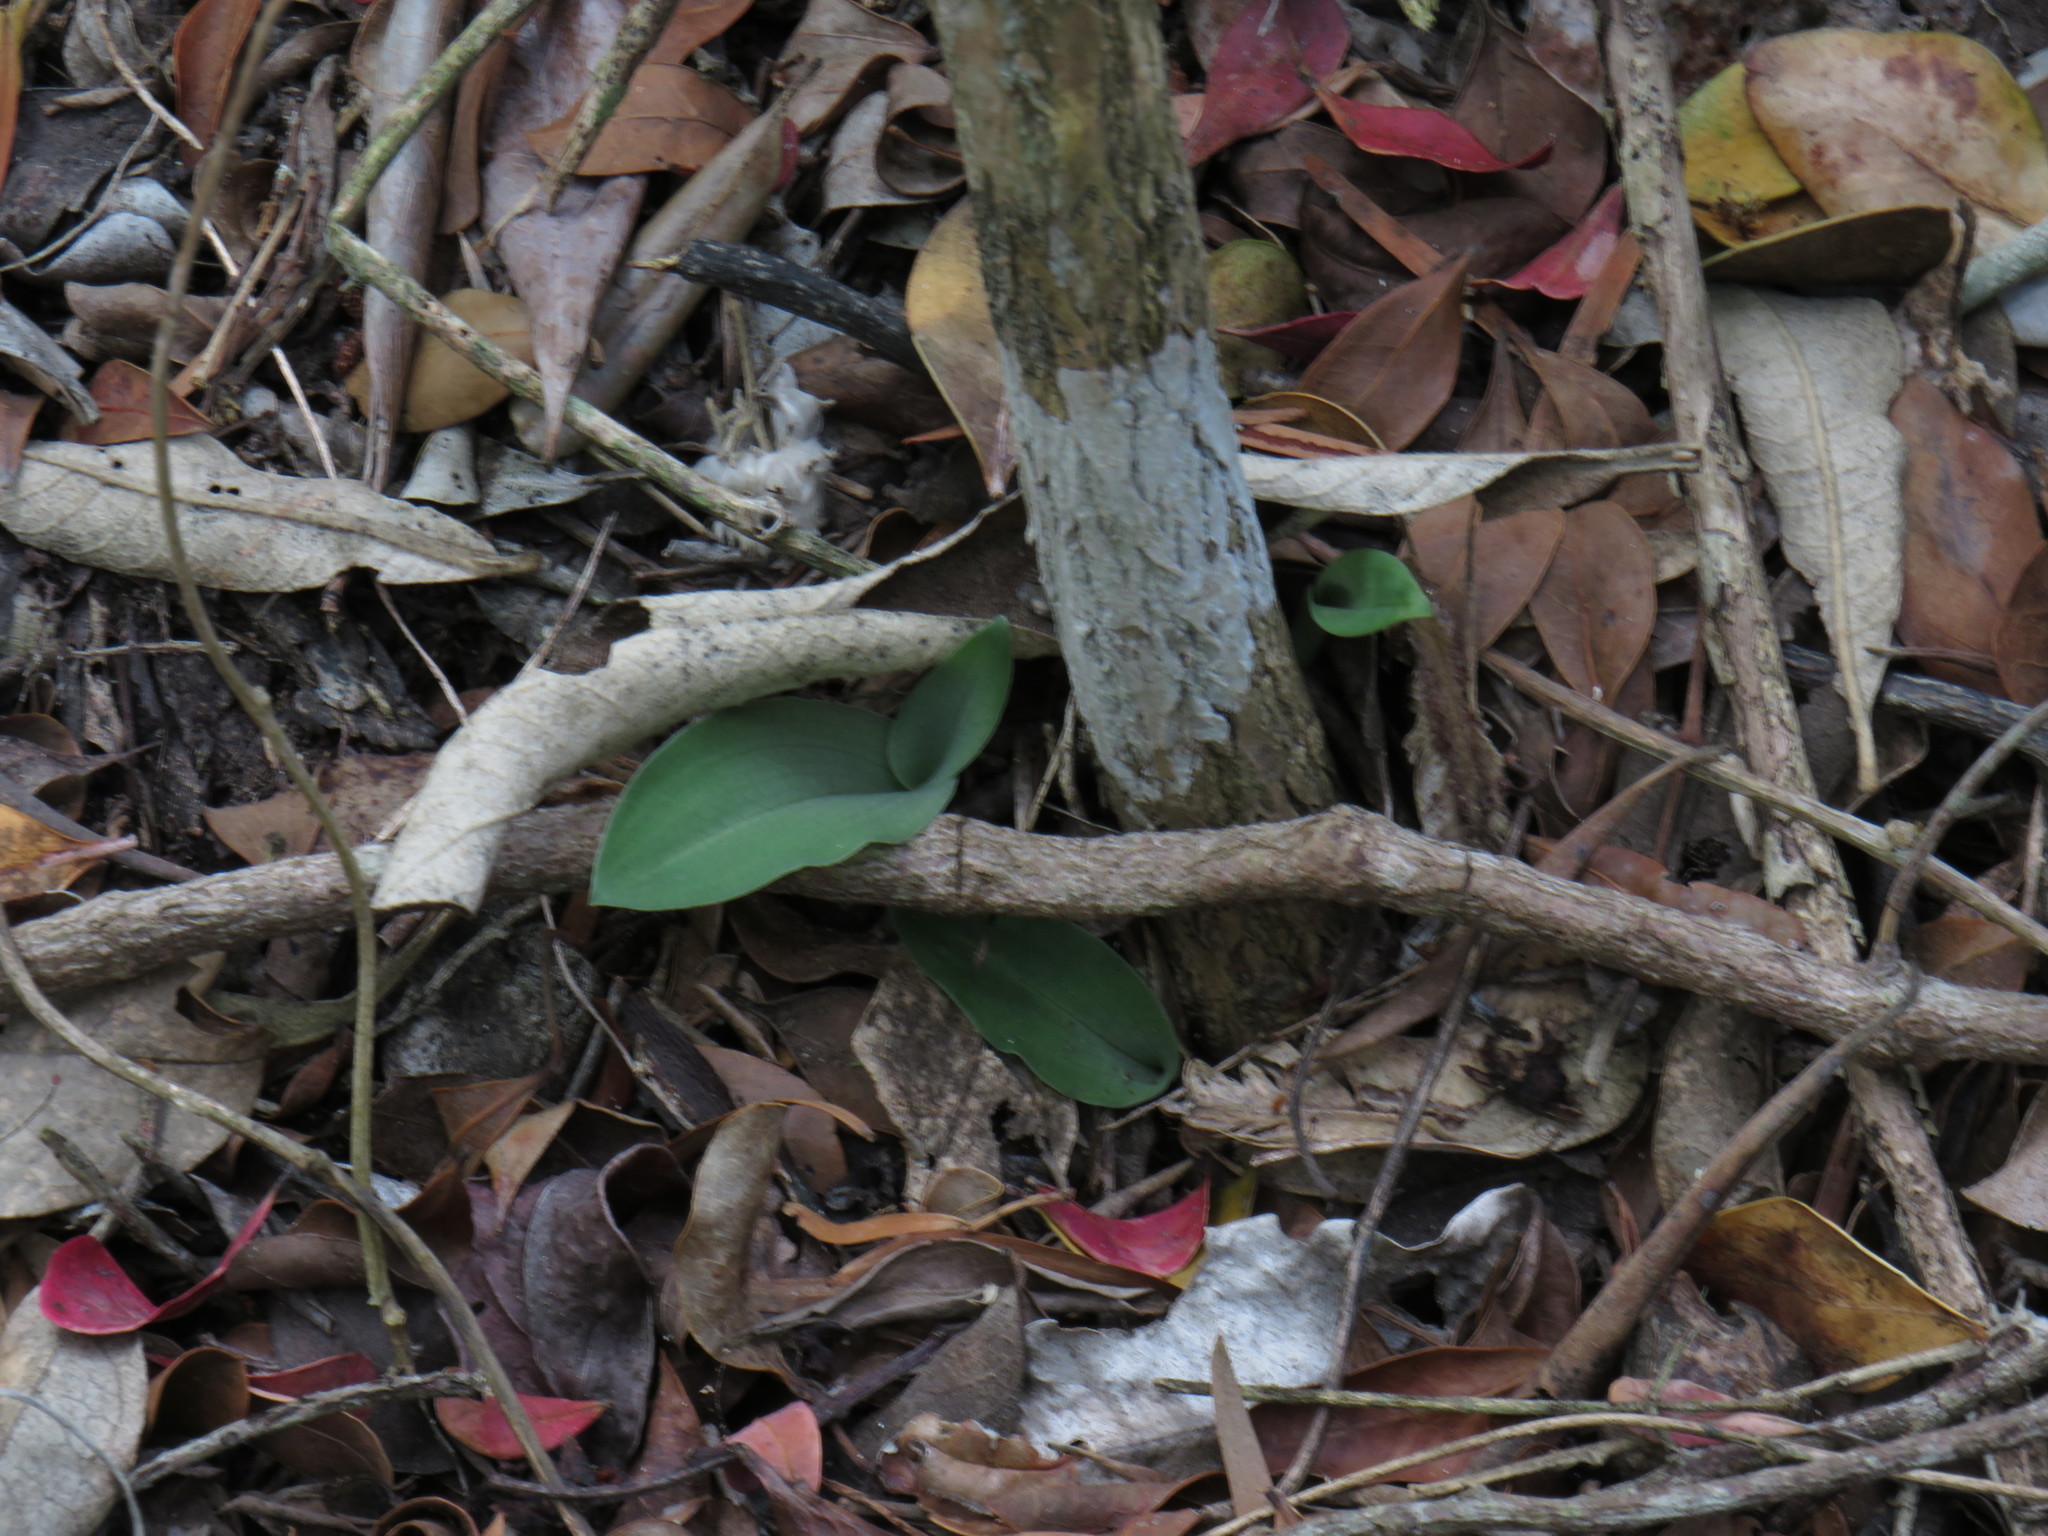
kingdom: Plantae
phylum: Tracheophyta
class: Liliopsida
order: Asparagales
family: Orchidaceae
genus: Habenaria
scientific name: Habenaria arenaria
